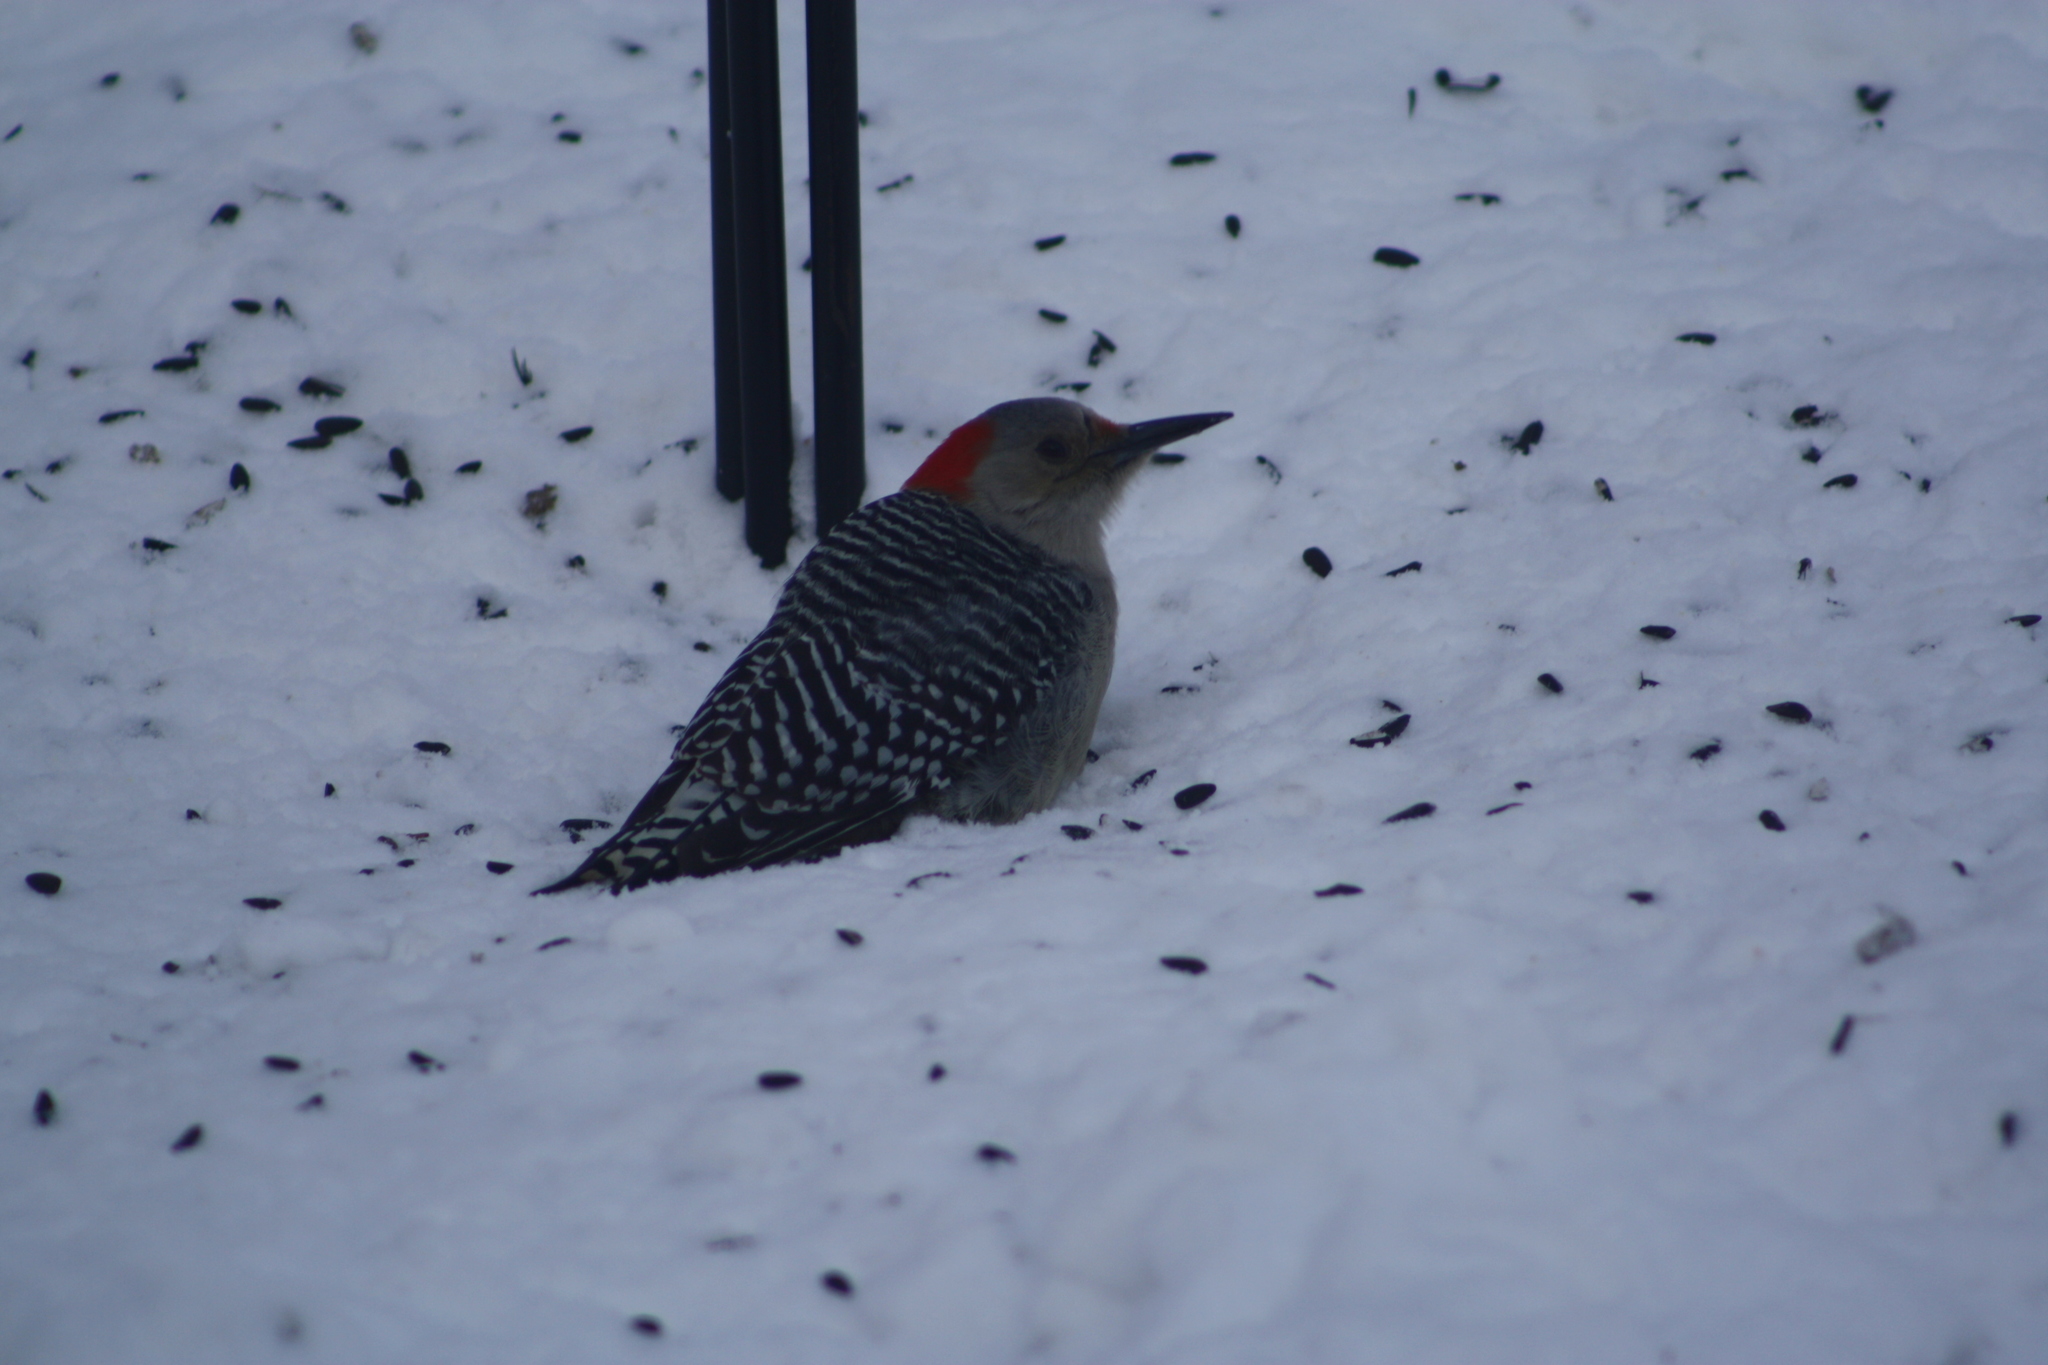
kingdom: Animalia
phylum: Chordata
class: Aves
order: Piciformes
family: Picidae
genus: Melanerpes
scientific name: Melanerpes carolinus
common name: Red-bellied woodpecker
